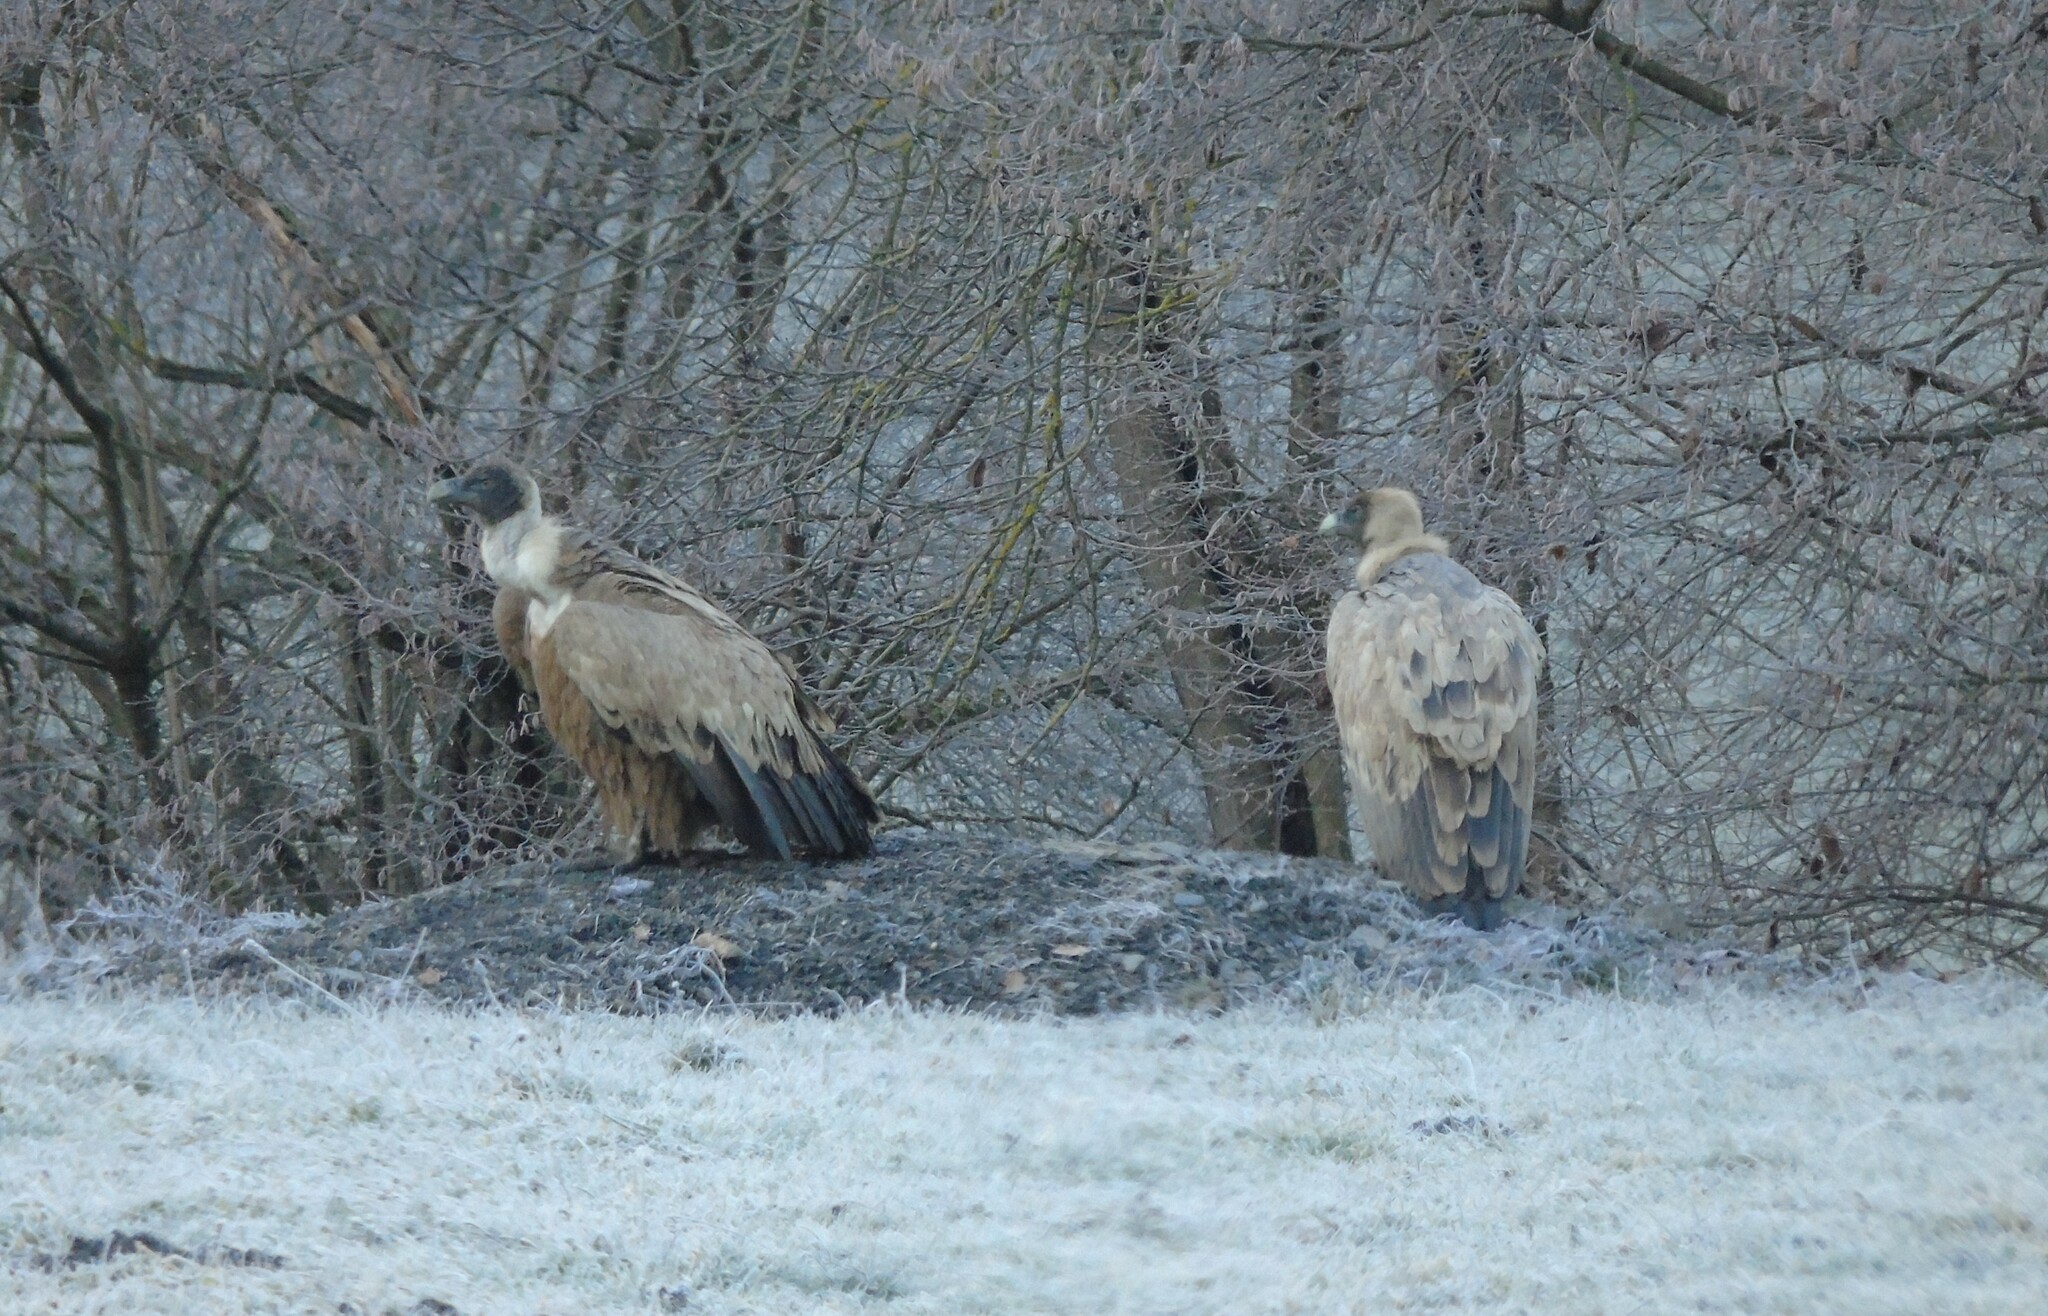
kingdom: Animalia
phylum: Chordata
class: Aves
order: Accipitriformes
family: Accipitridae
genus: Gyps
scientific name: Gyps fulvus
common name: Griffon vulture
